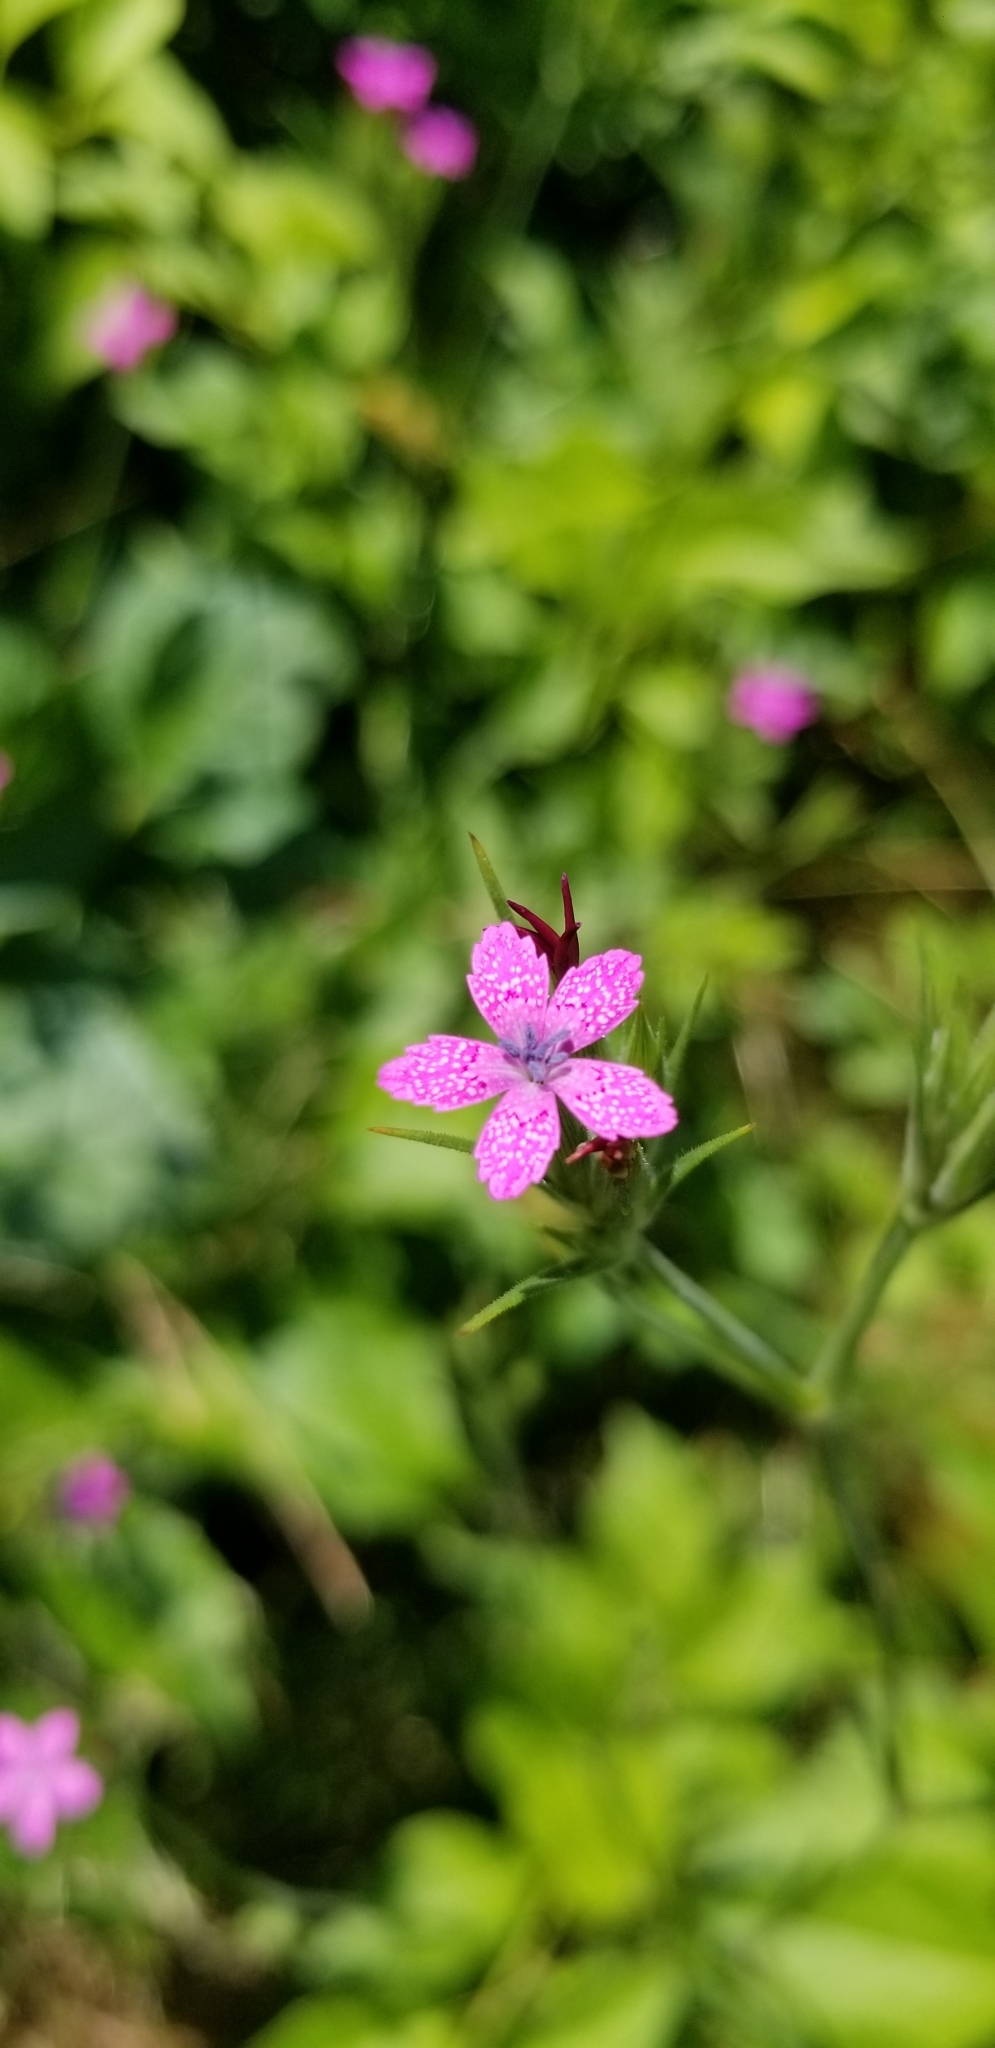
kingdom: Plantae
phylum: Tracheophyta
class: Magnoliopsida
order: Caryophyllales
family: Caryophyllaceae
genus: Dianthus
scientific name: Dianthus armeria
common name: Deptford pink
